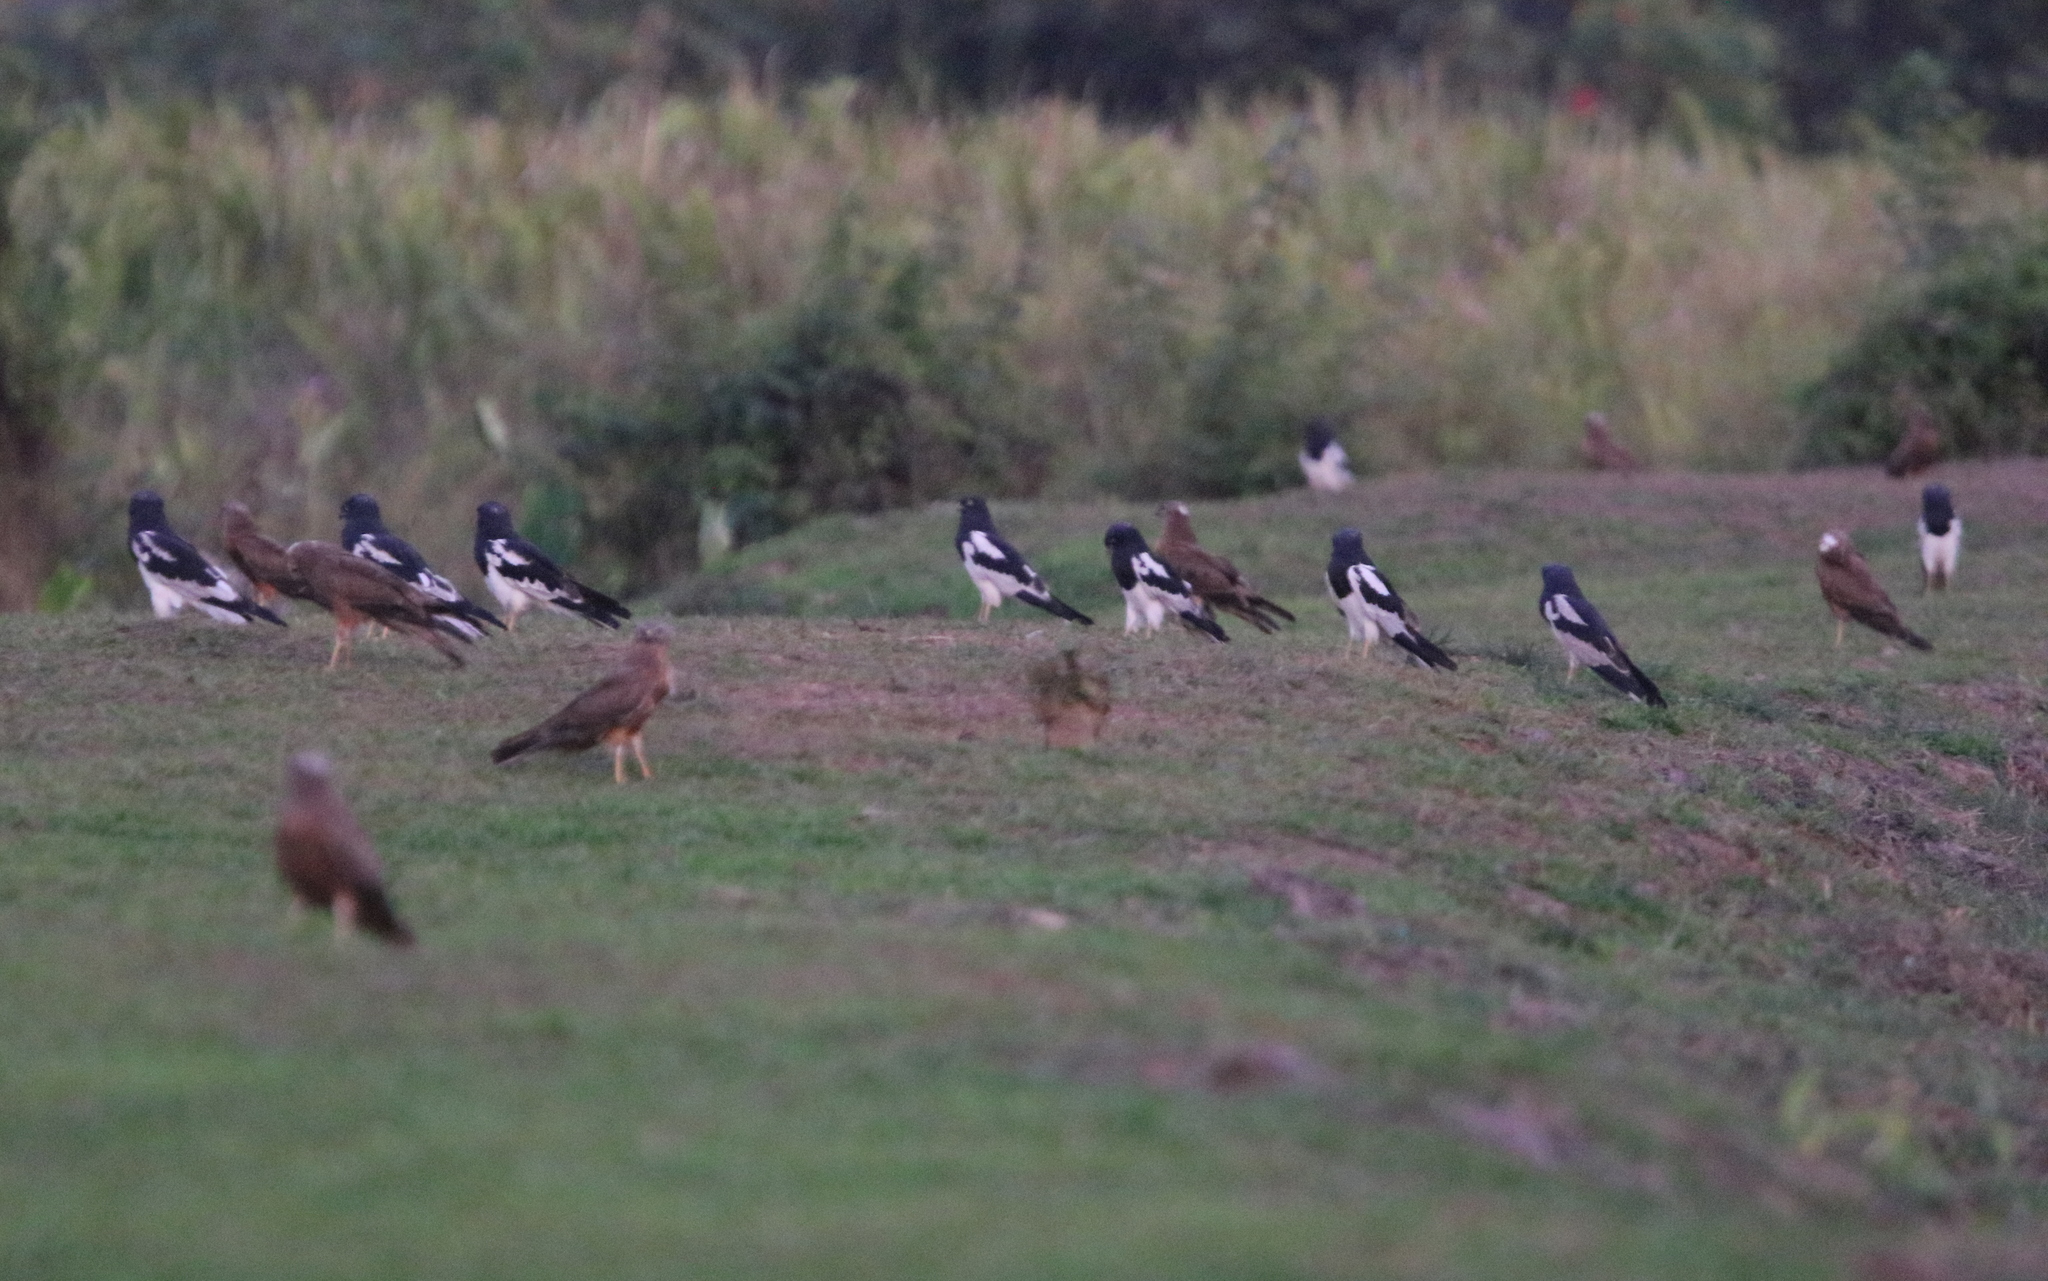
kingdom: Animalia
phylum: Chordata
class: Aves
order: Accipitriformes
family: Accipitridae
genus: Circus
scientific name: Circus melanoleucos
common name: Pied harrier
